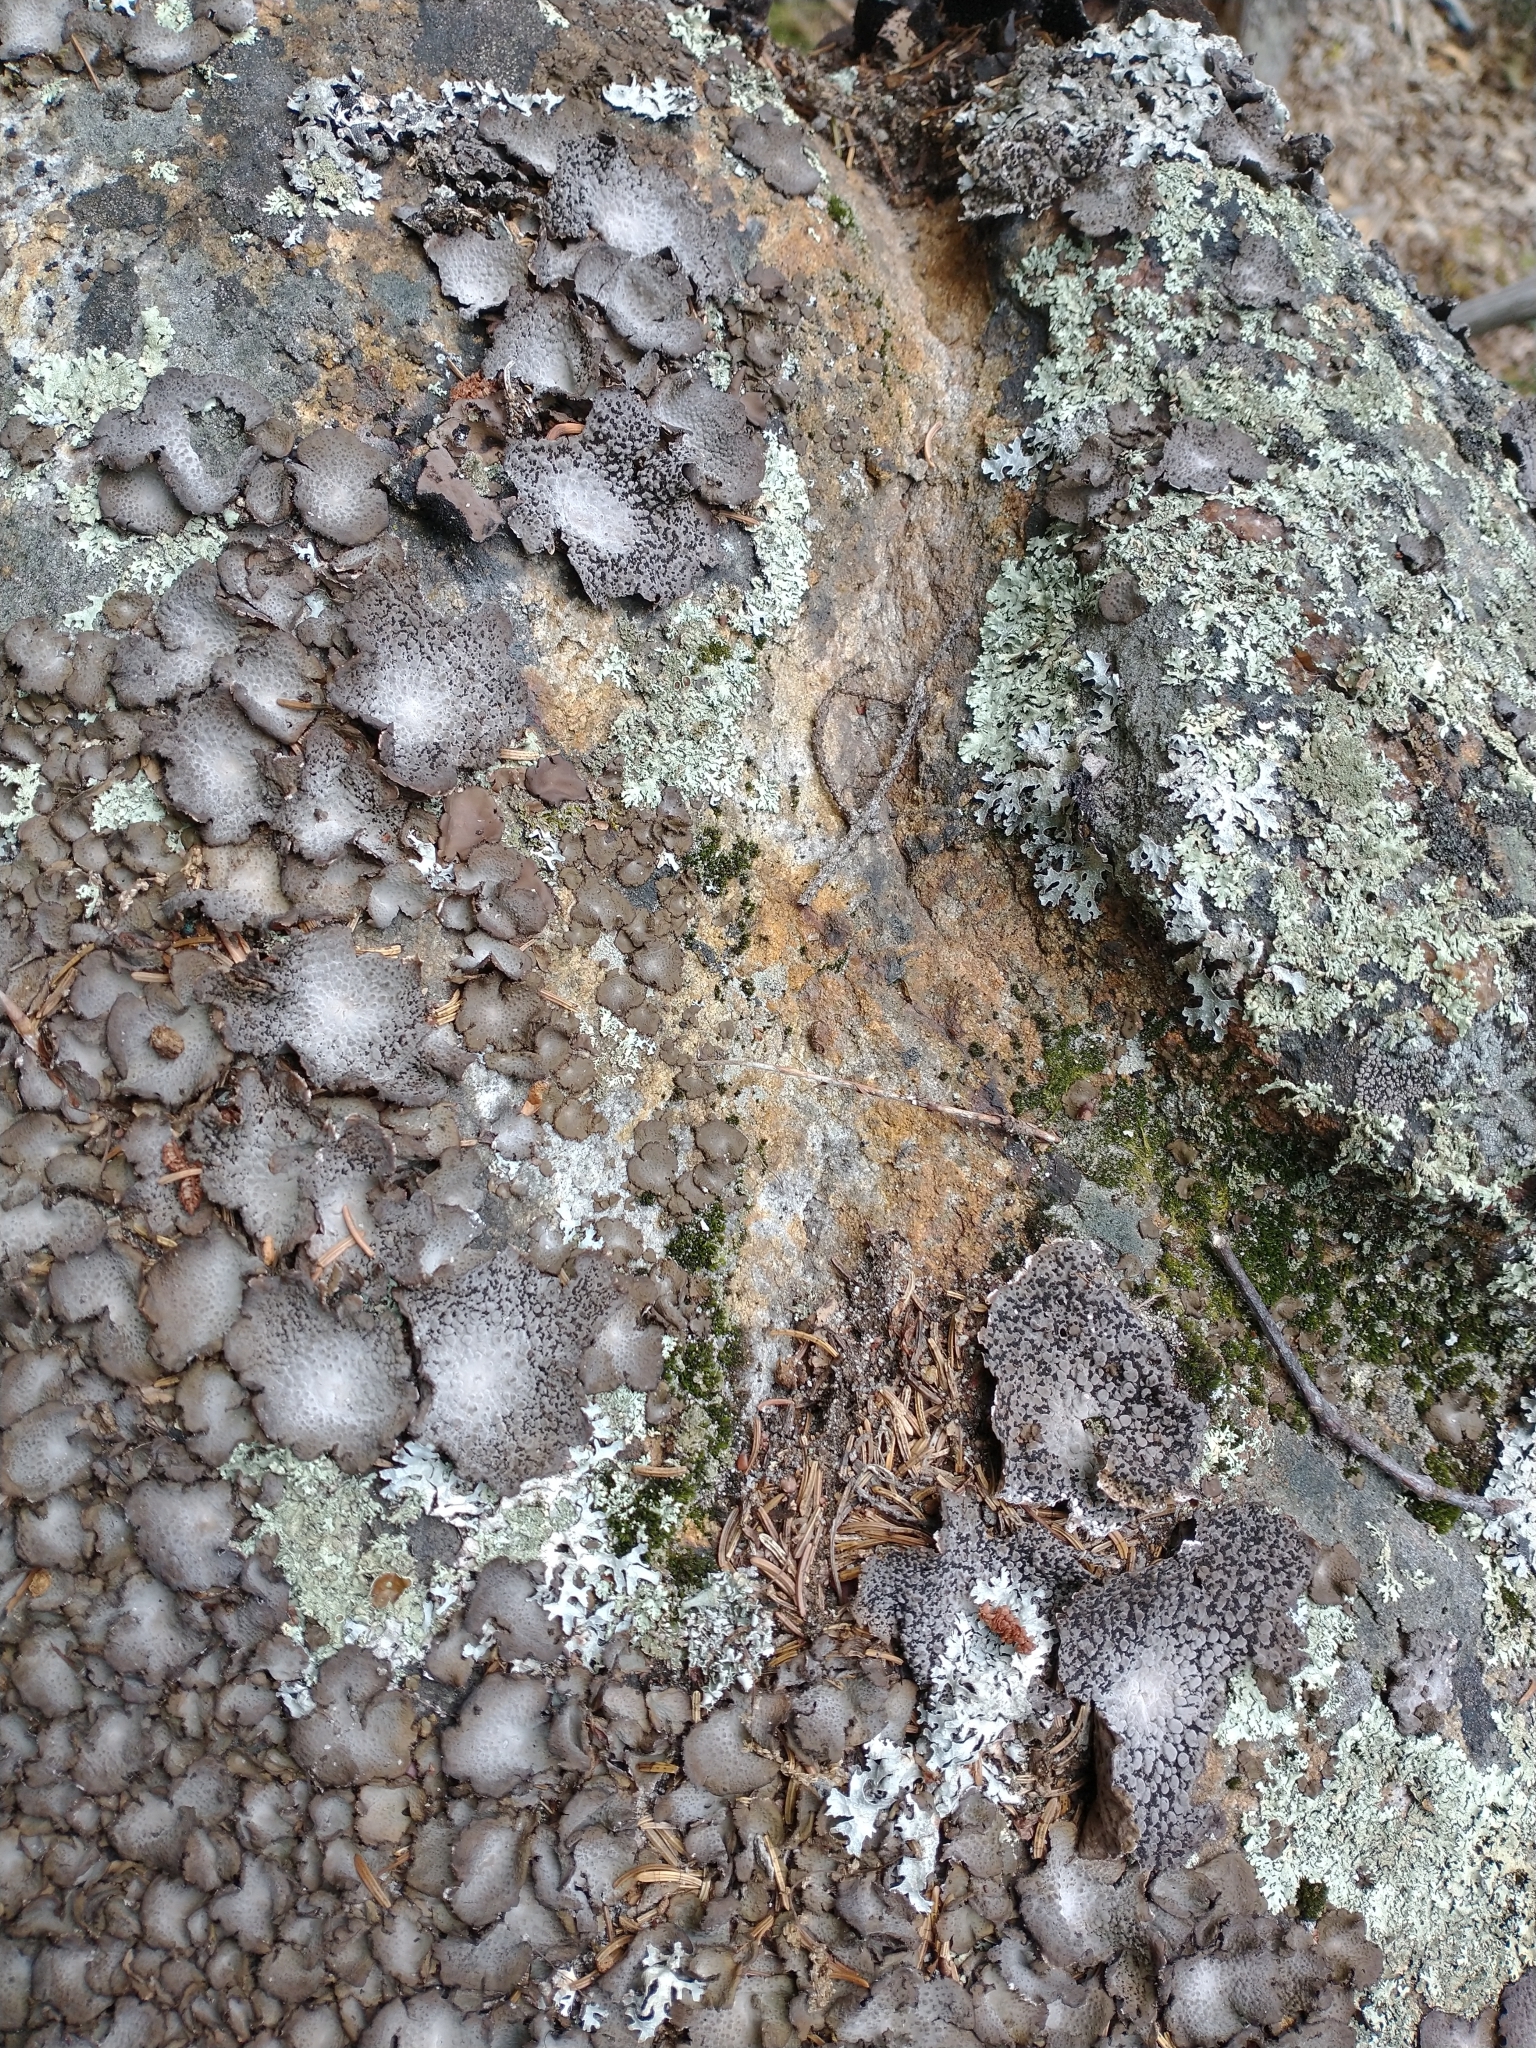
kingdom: Fungi
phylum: Ascomycota
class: Lecanoromycetes
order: Umbilicariales
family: Umbilicariaceae
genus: Lasallia
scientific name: Lasallia papulosa
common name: Common toadskin lichen
